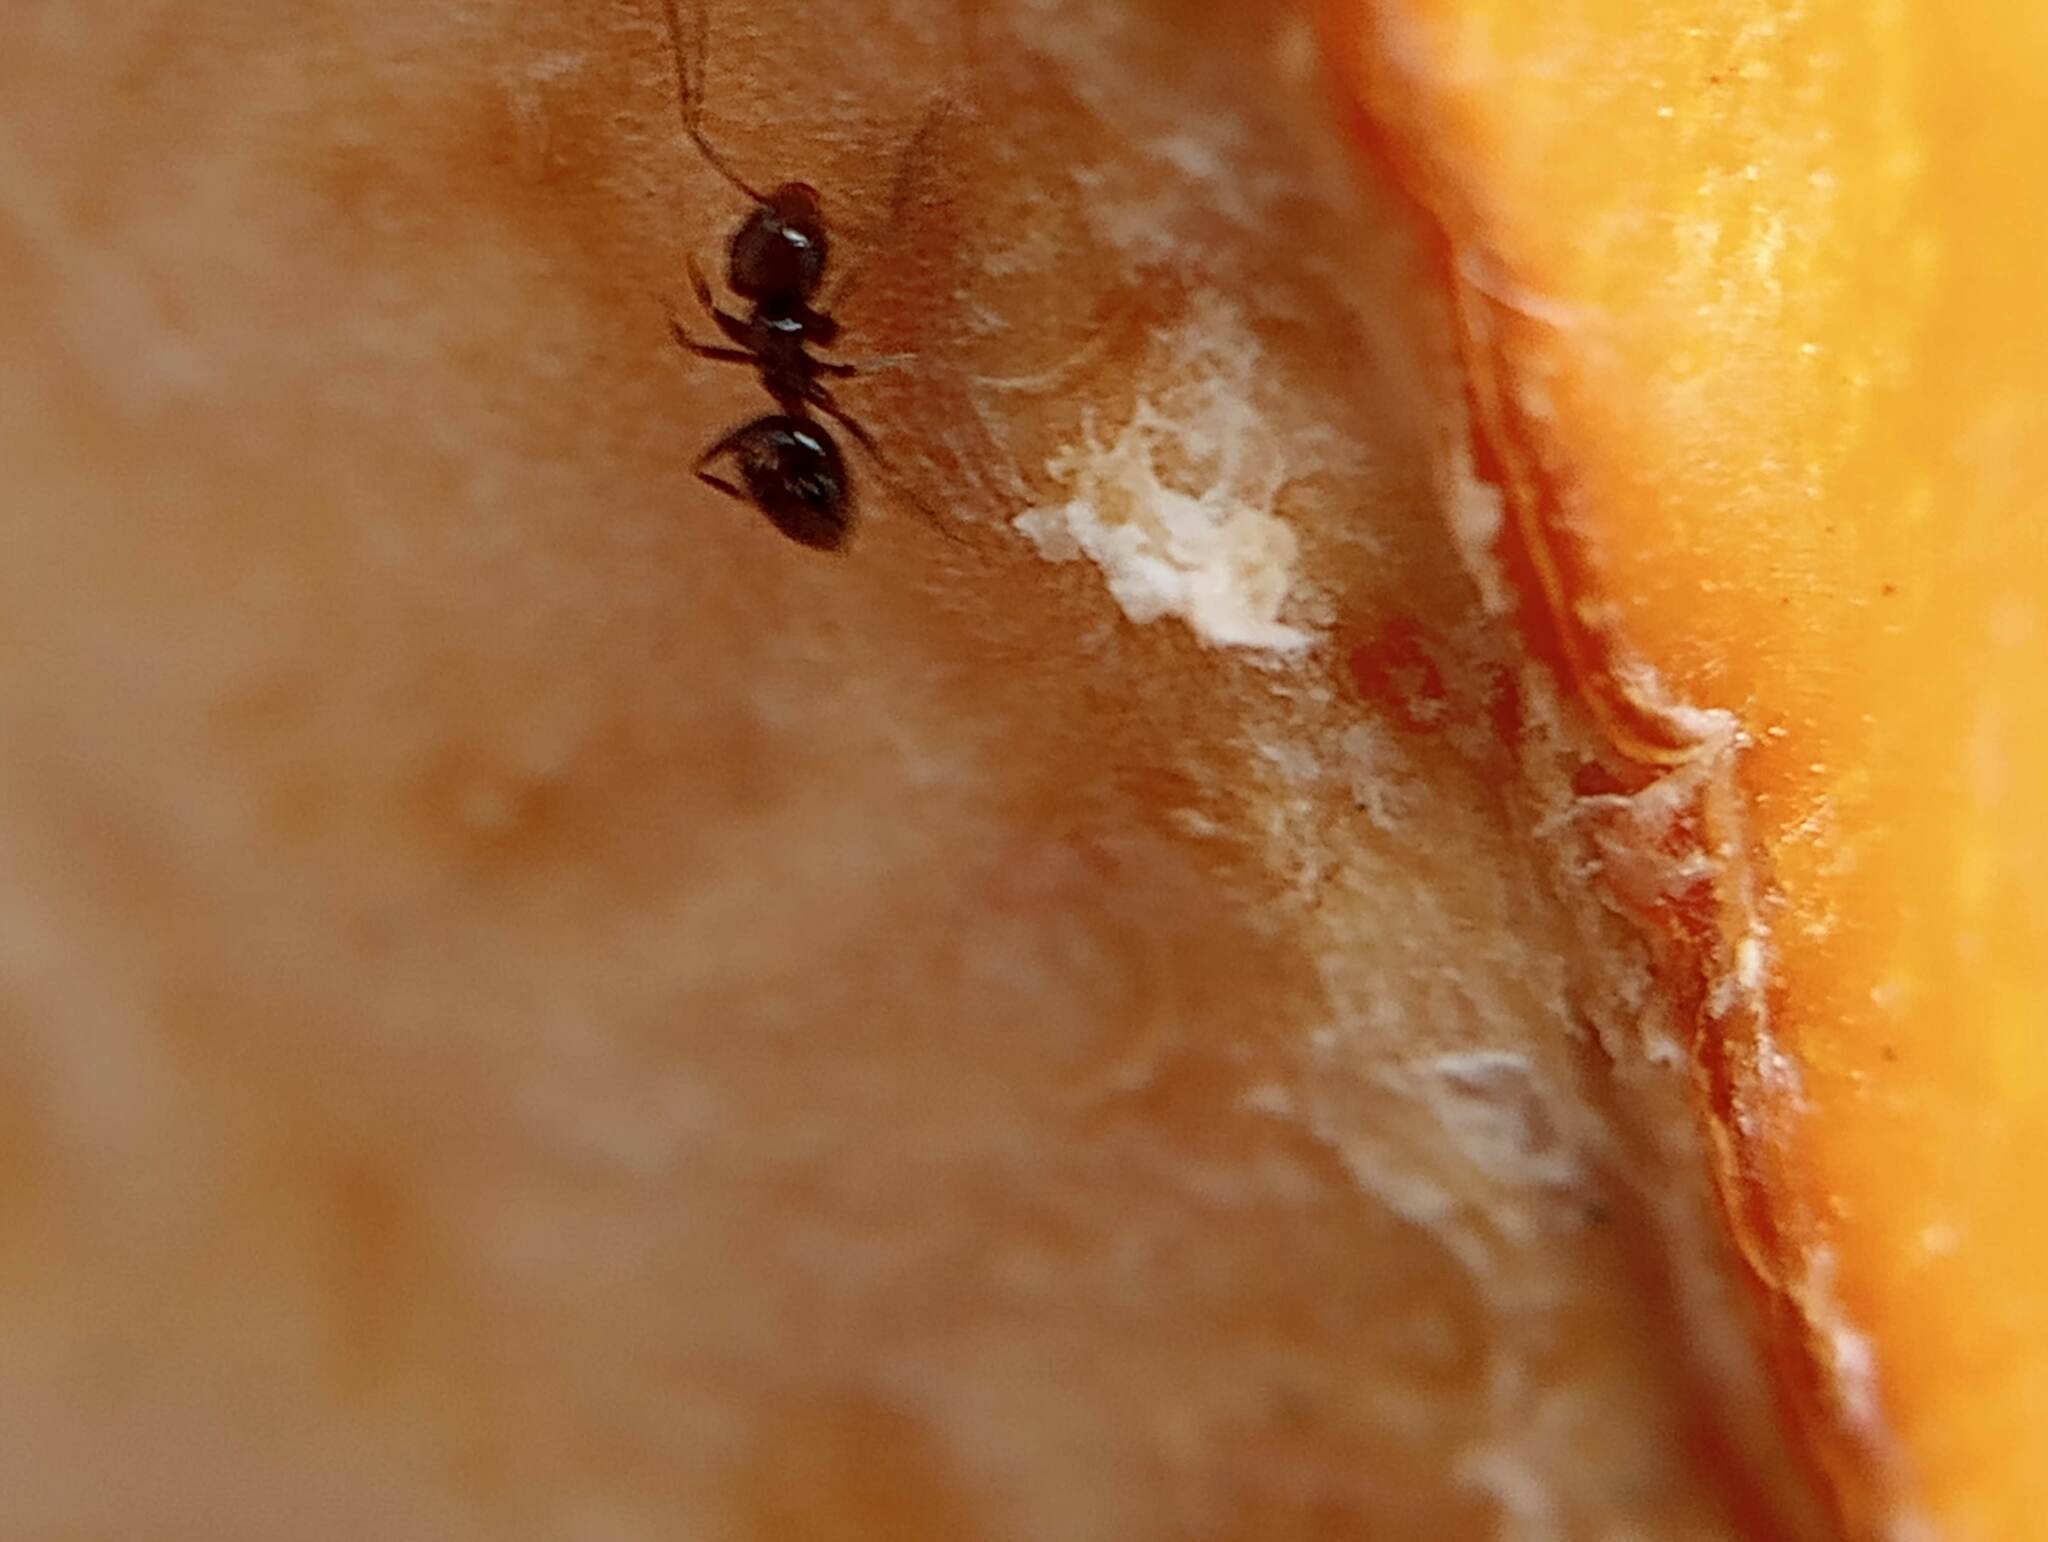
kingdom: Animalia
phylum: Arthropoda
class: Insecta
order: Hymenoptera
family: Formicidae
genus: Brachymyrmex
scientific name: Brachymyrmex patagonicus
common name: Dark rover ant
